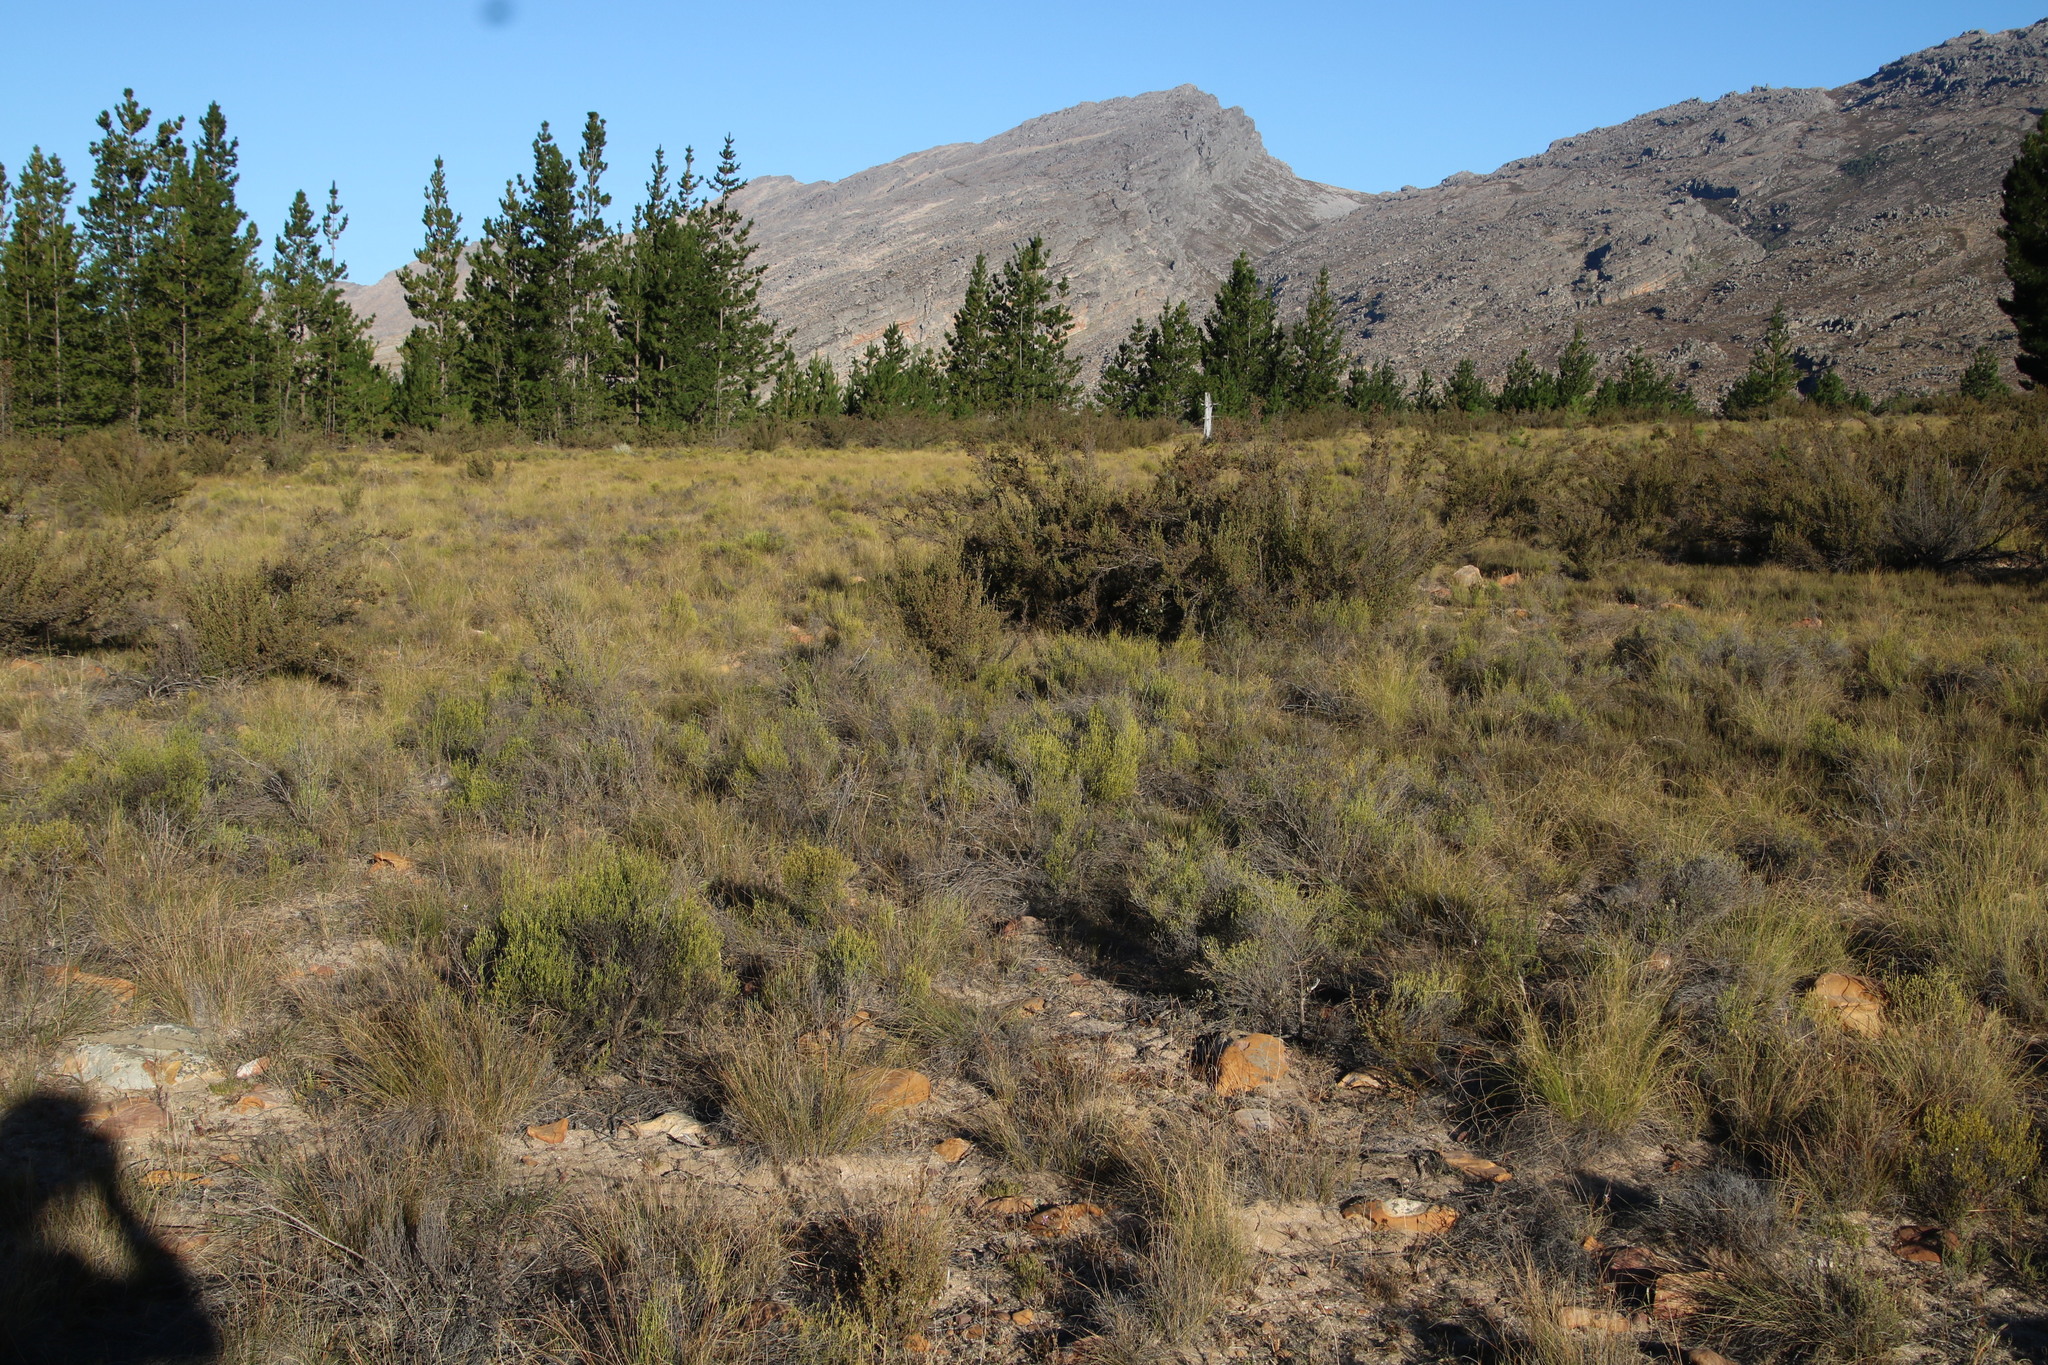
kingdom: Plantae
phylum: Tracheophyta
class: Magnoliopsida
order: Asterales
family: Asteraceae
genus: Dicerothamnus
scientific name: Dicerothamnus rhinocerotis
